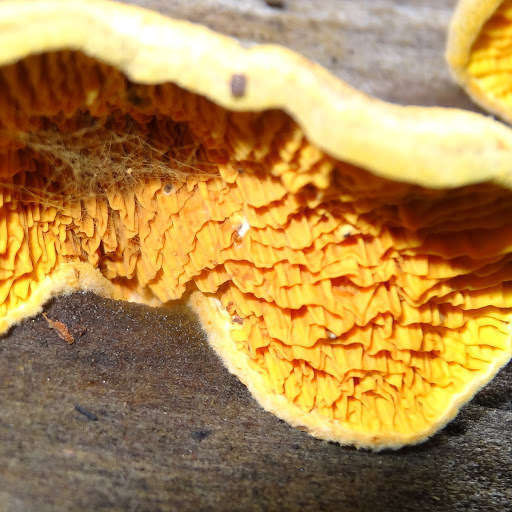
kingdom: Fungi
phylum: Basidiomycota
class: Agaricomycetes
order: Boletales
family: Paxillaceae
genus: Meiorganum
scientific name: Meiorganum curtisii
